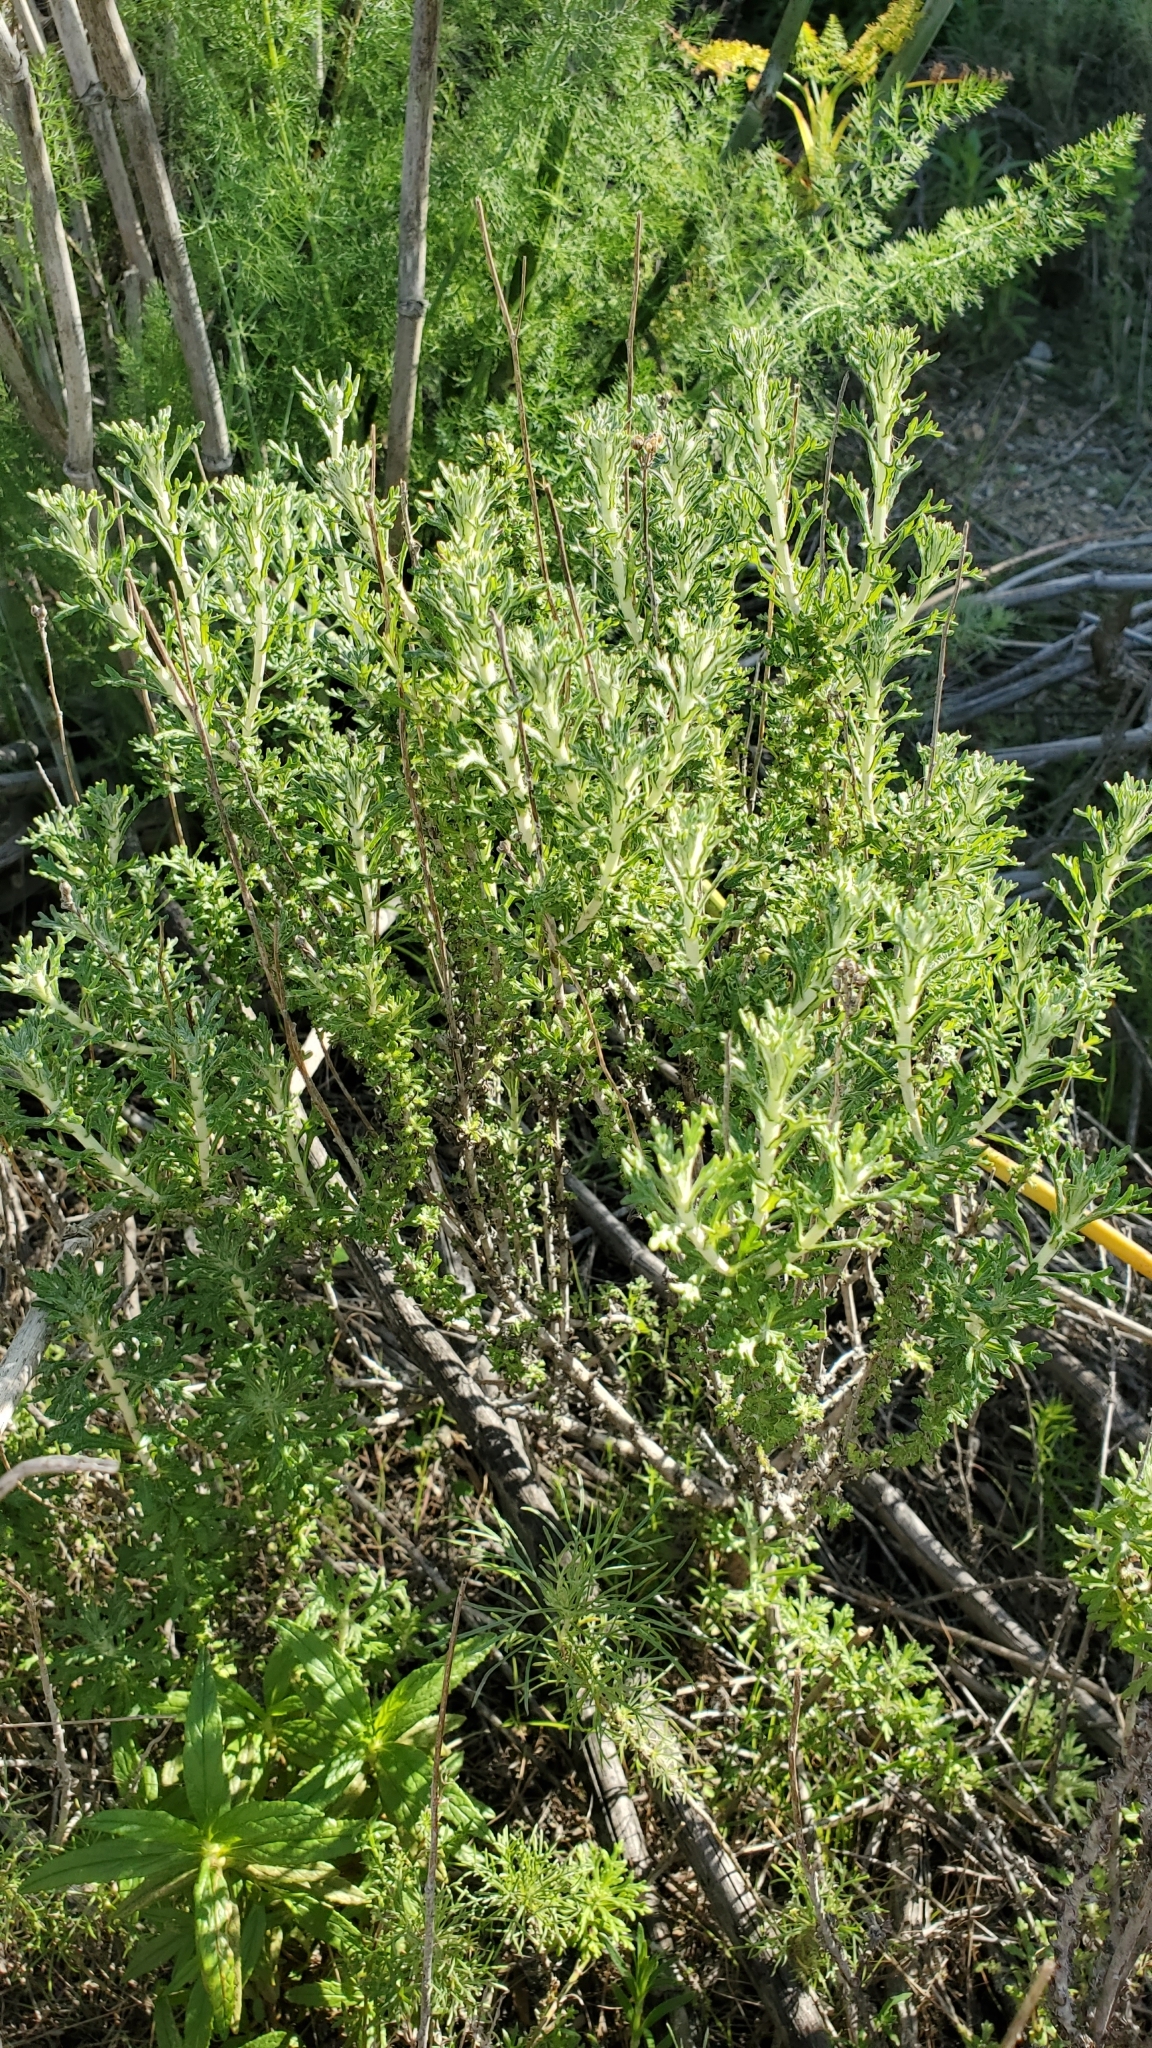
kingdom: Plantae
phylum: Tracheophyta
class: Magnoliopsida
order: Asterales
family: Asteraceae
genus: Eriophyllum
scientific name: Eriophyllum confertiflorum
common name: Golden-yarrow
